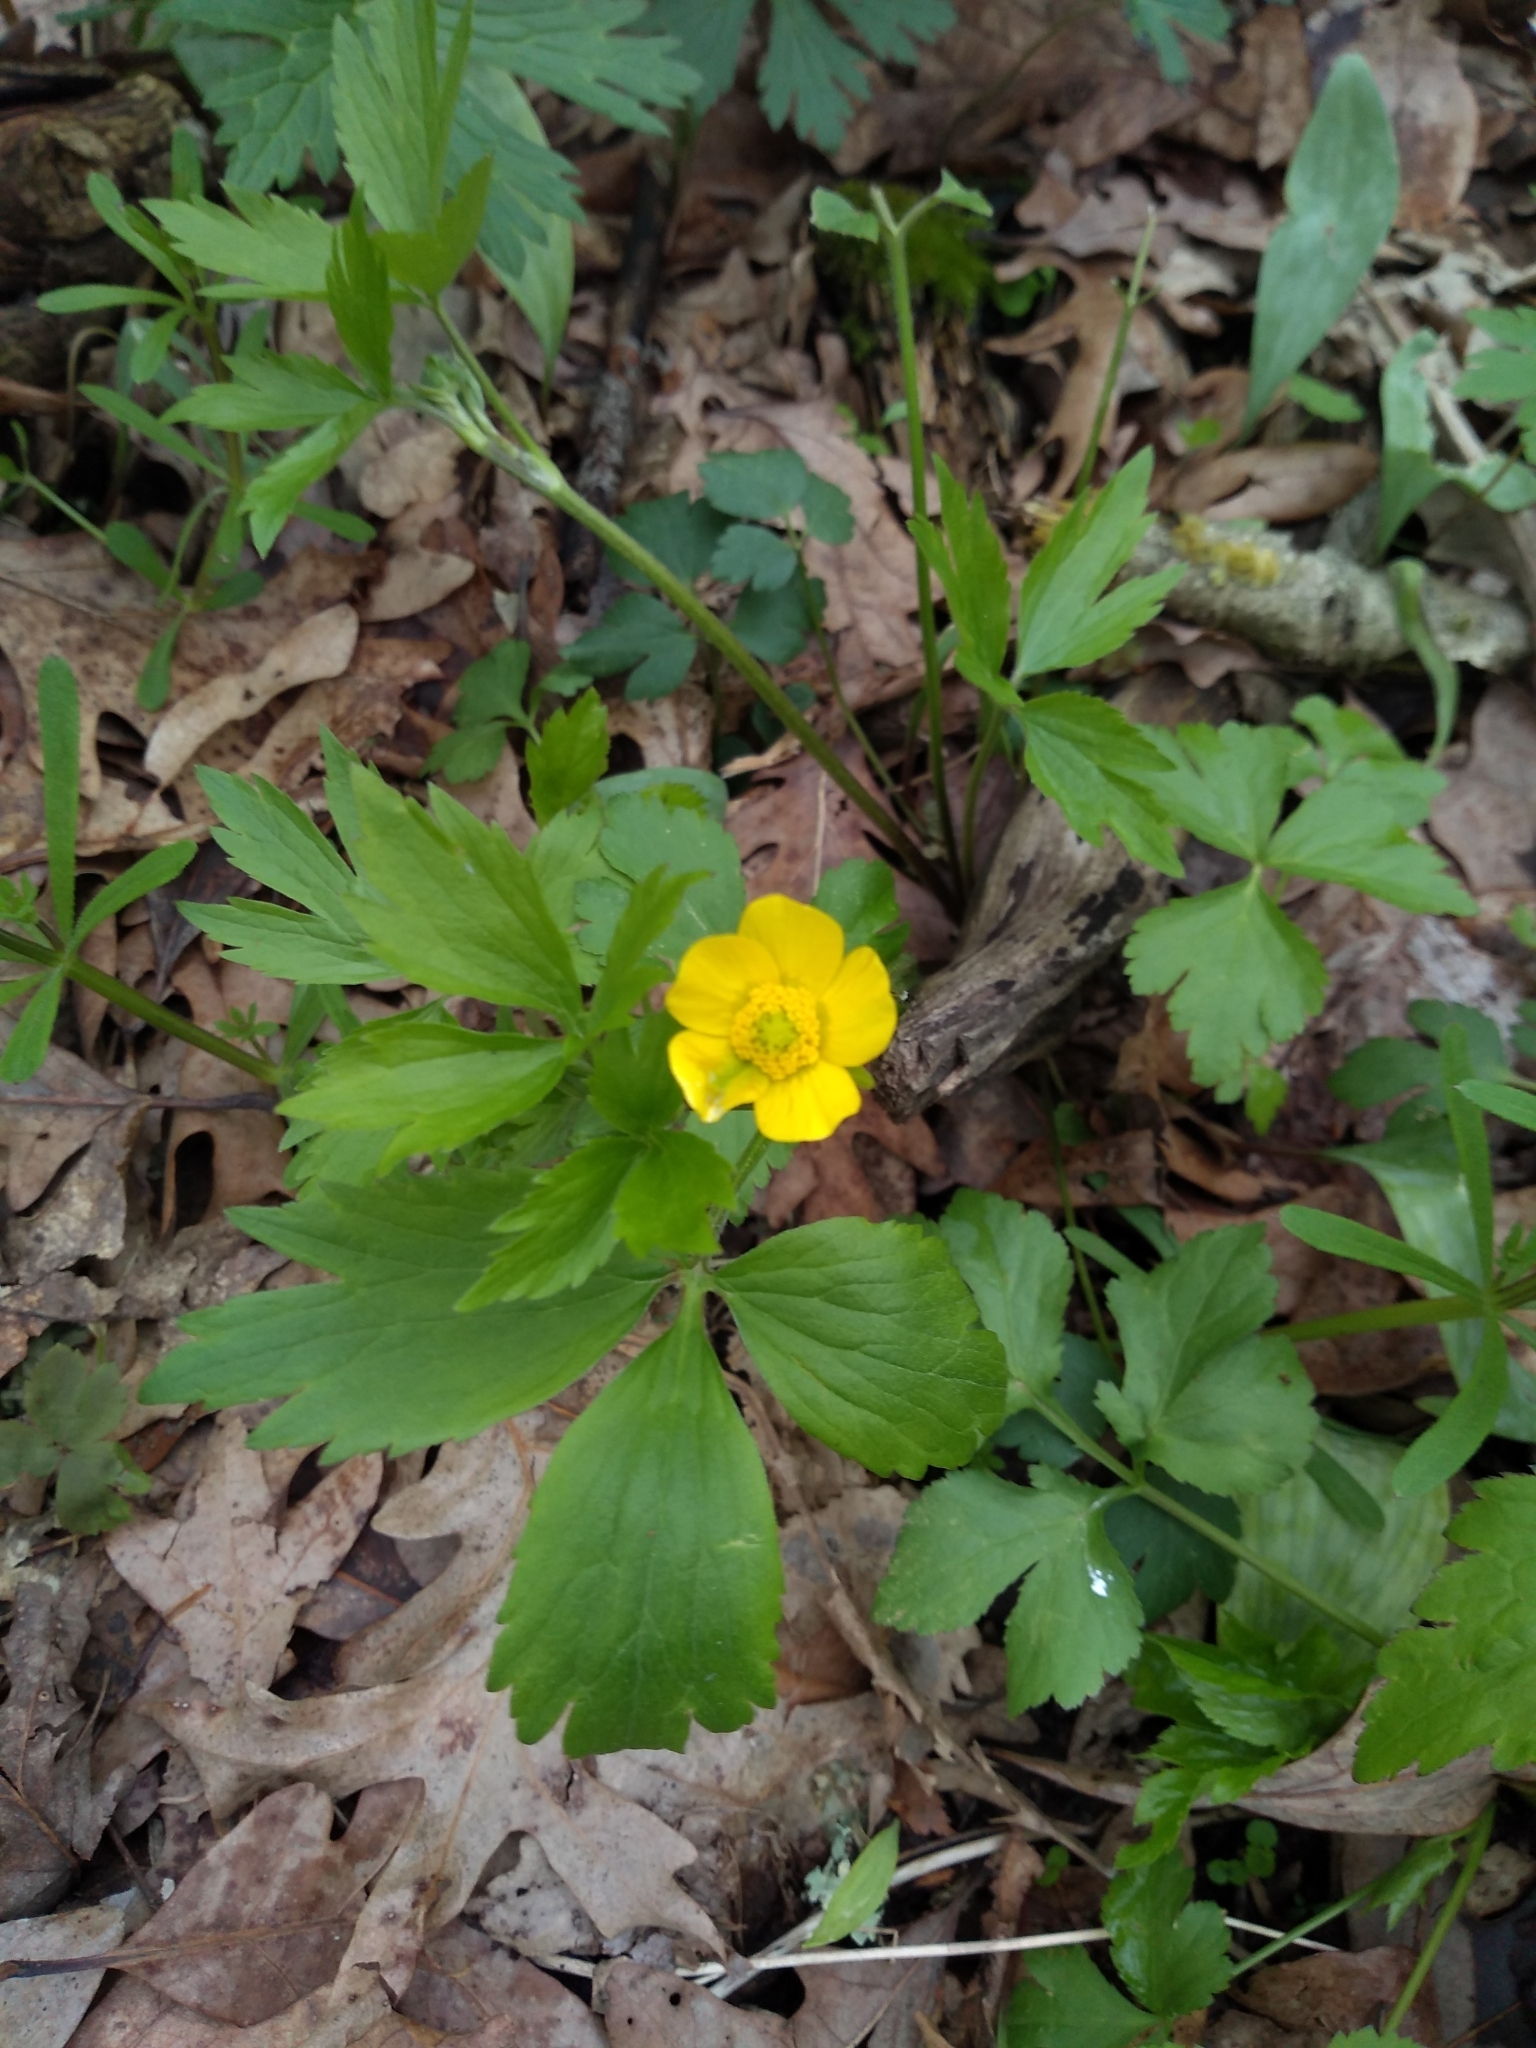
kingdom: Plantae
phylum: Tracheophyta
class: Magnoliopsida
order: Ranunculales
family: Ranunculaceae
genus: Ranunculus
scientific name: Ranunculus hispidus
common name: Bristly buttercup
